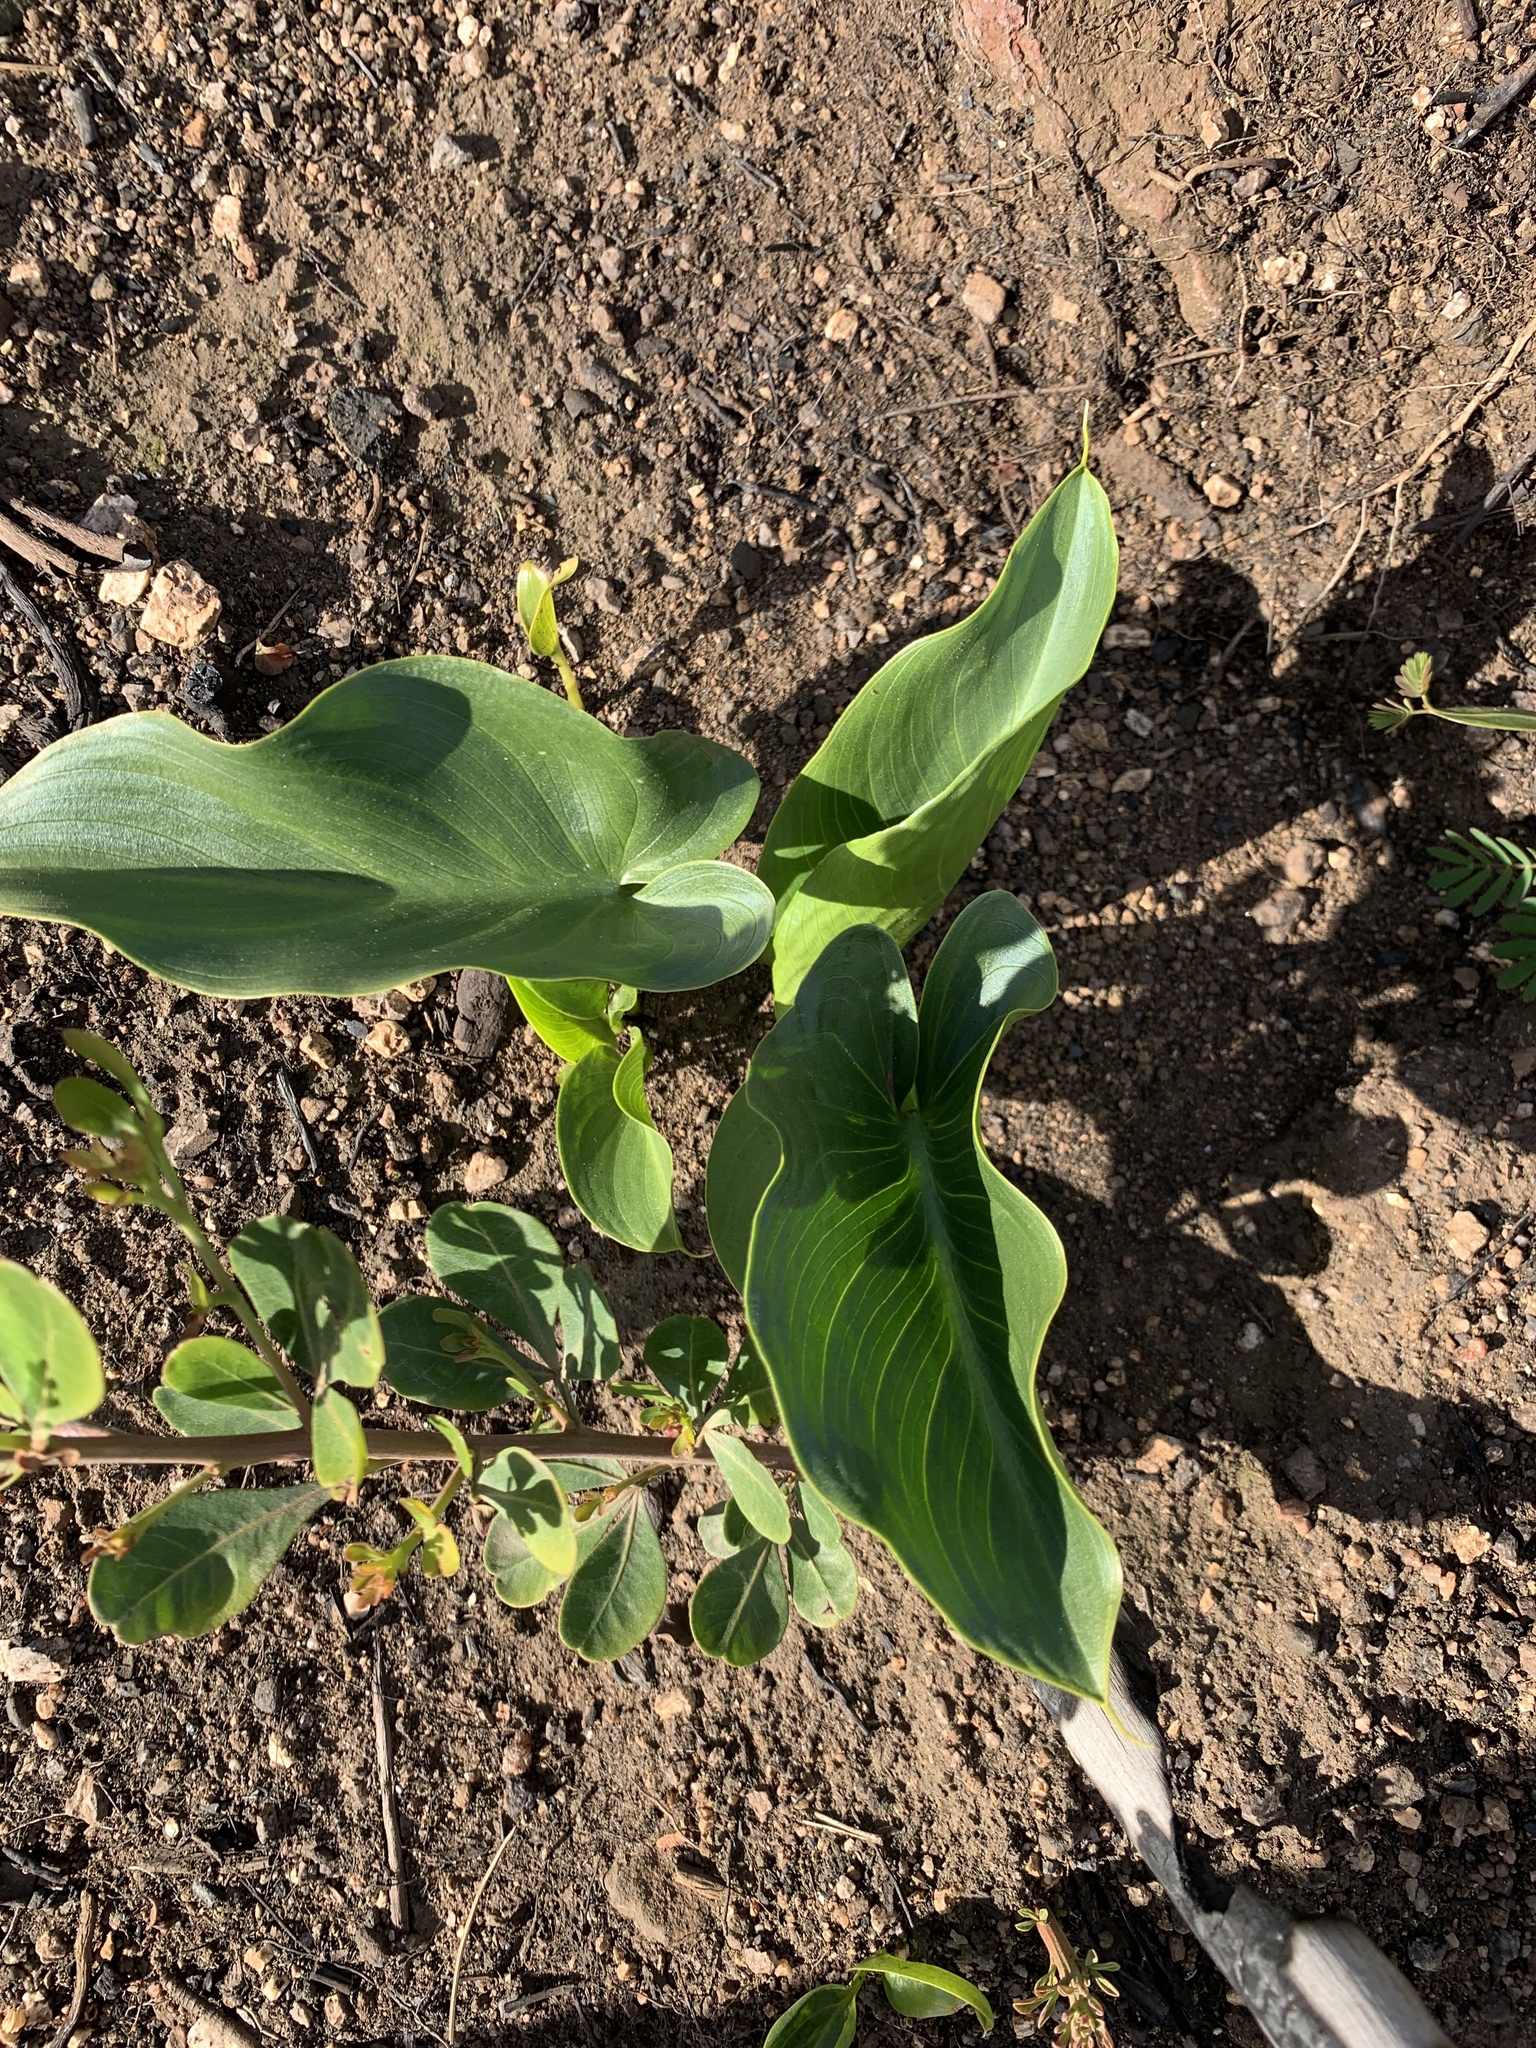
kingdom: Plantae
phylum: Tracheophyta
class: Liliopsida
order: Alismatales
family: Araceae
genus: Zantedeschia
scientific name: Zantedeschia aethiopica
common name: Altar-lily
